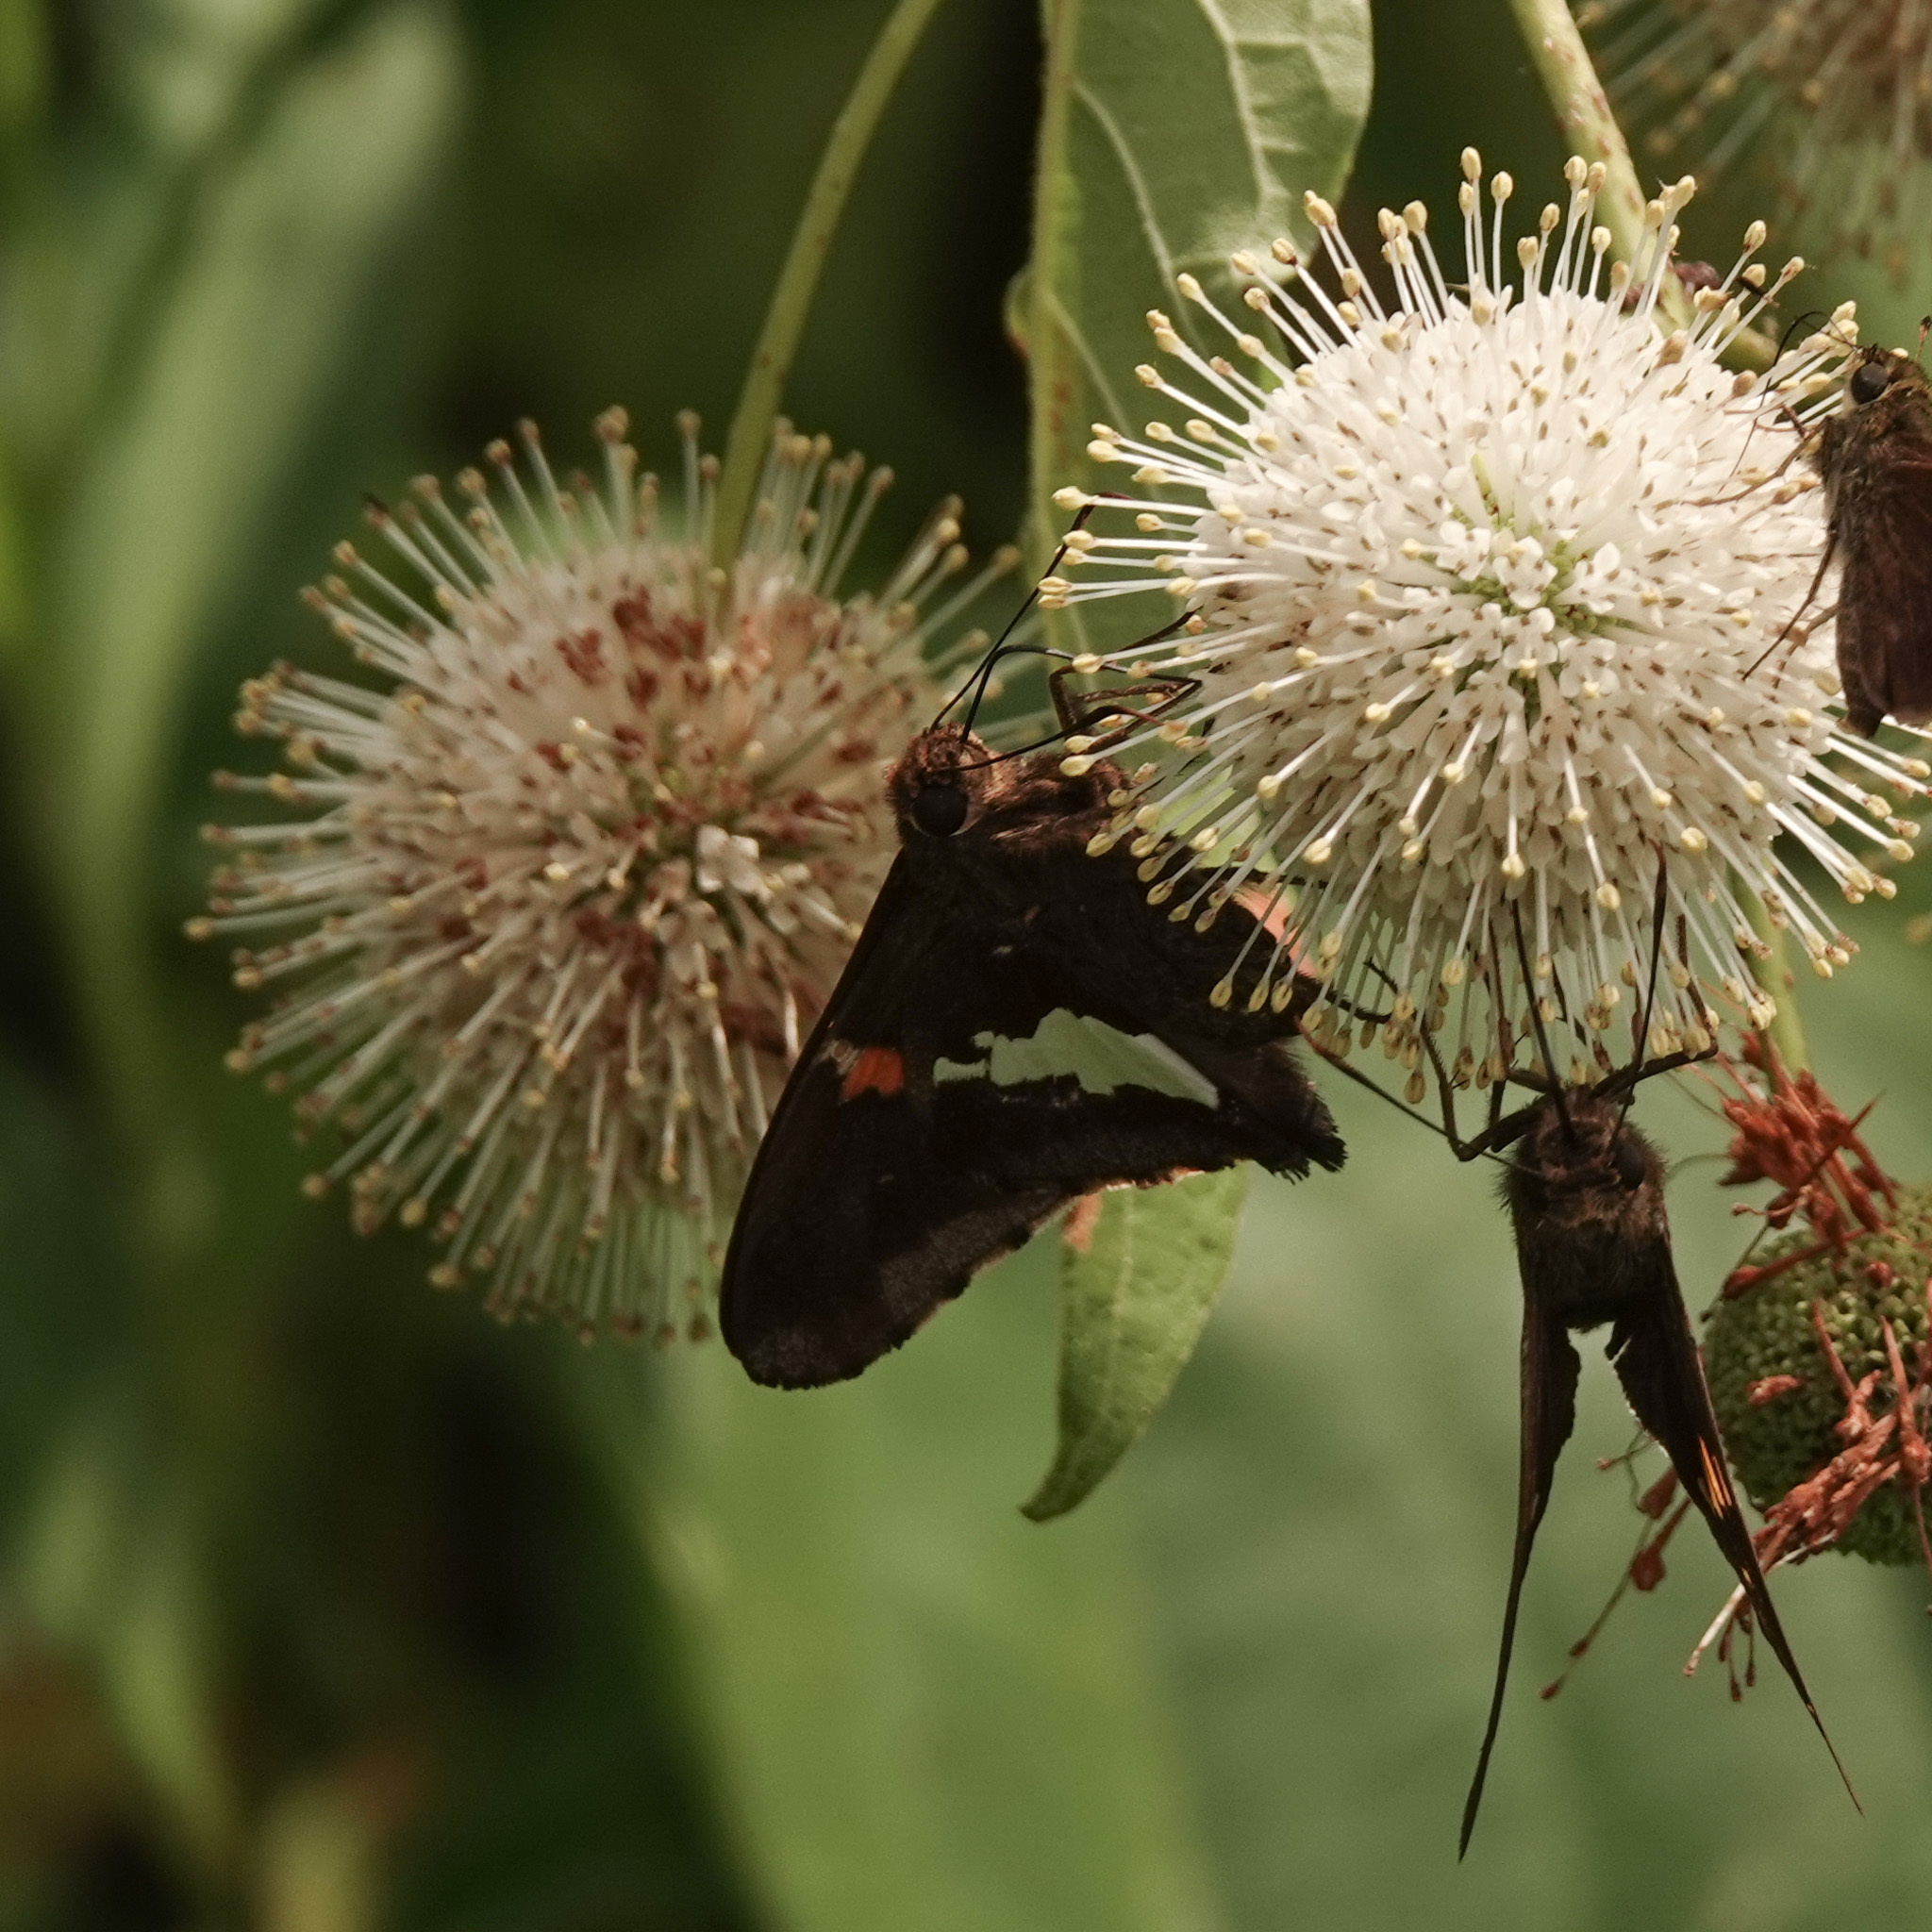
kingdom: Animalia
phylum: Arthropoda
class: Insecta
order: Lepidoptera
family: Hesperiidae
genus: Epargyreus
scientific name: Epargyreus clarus
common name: Silver-spotted skipper
